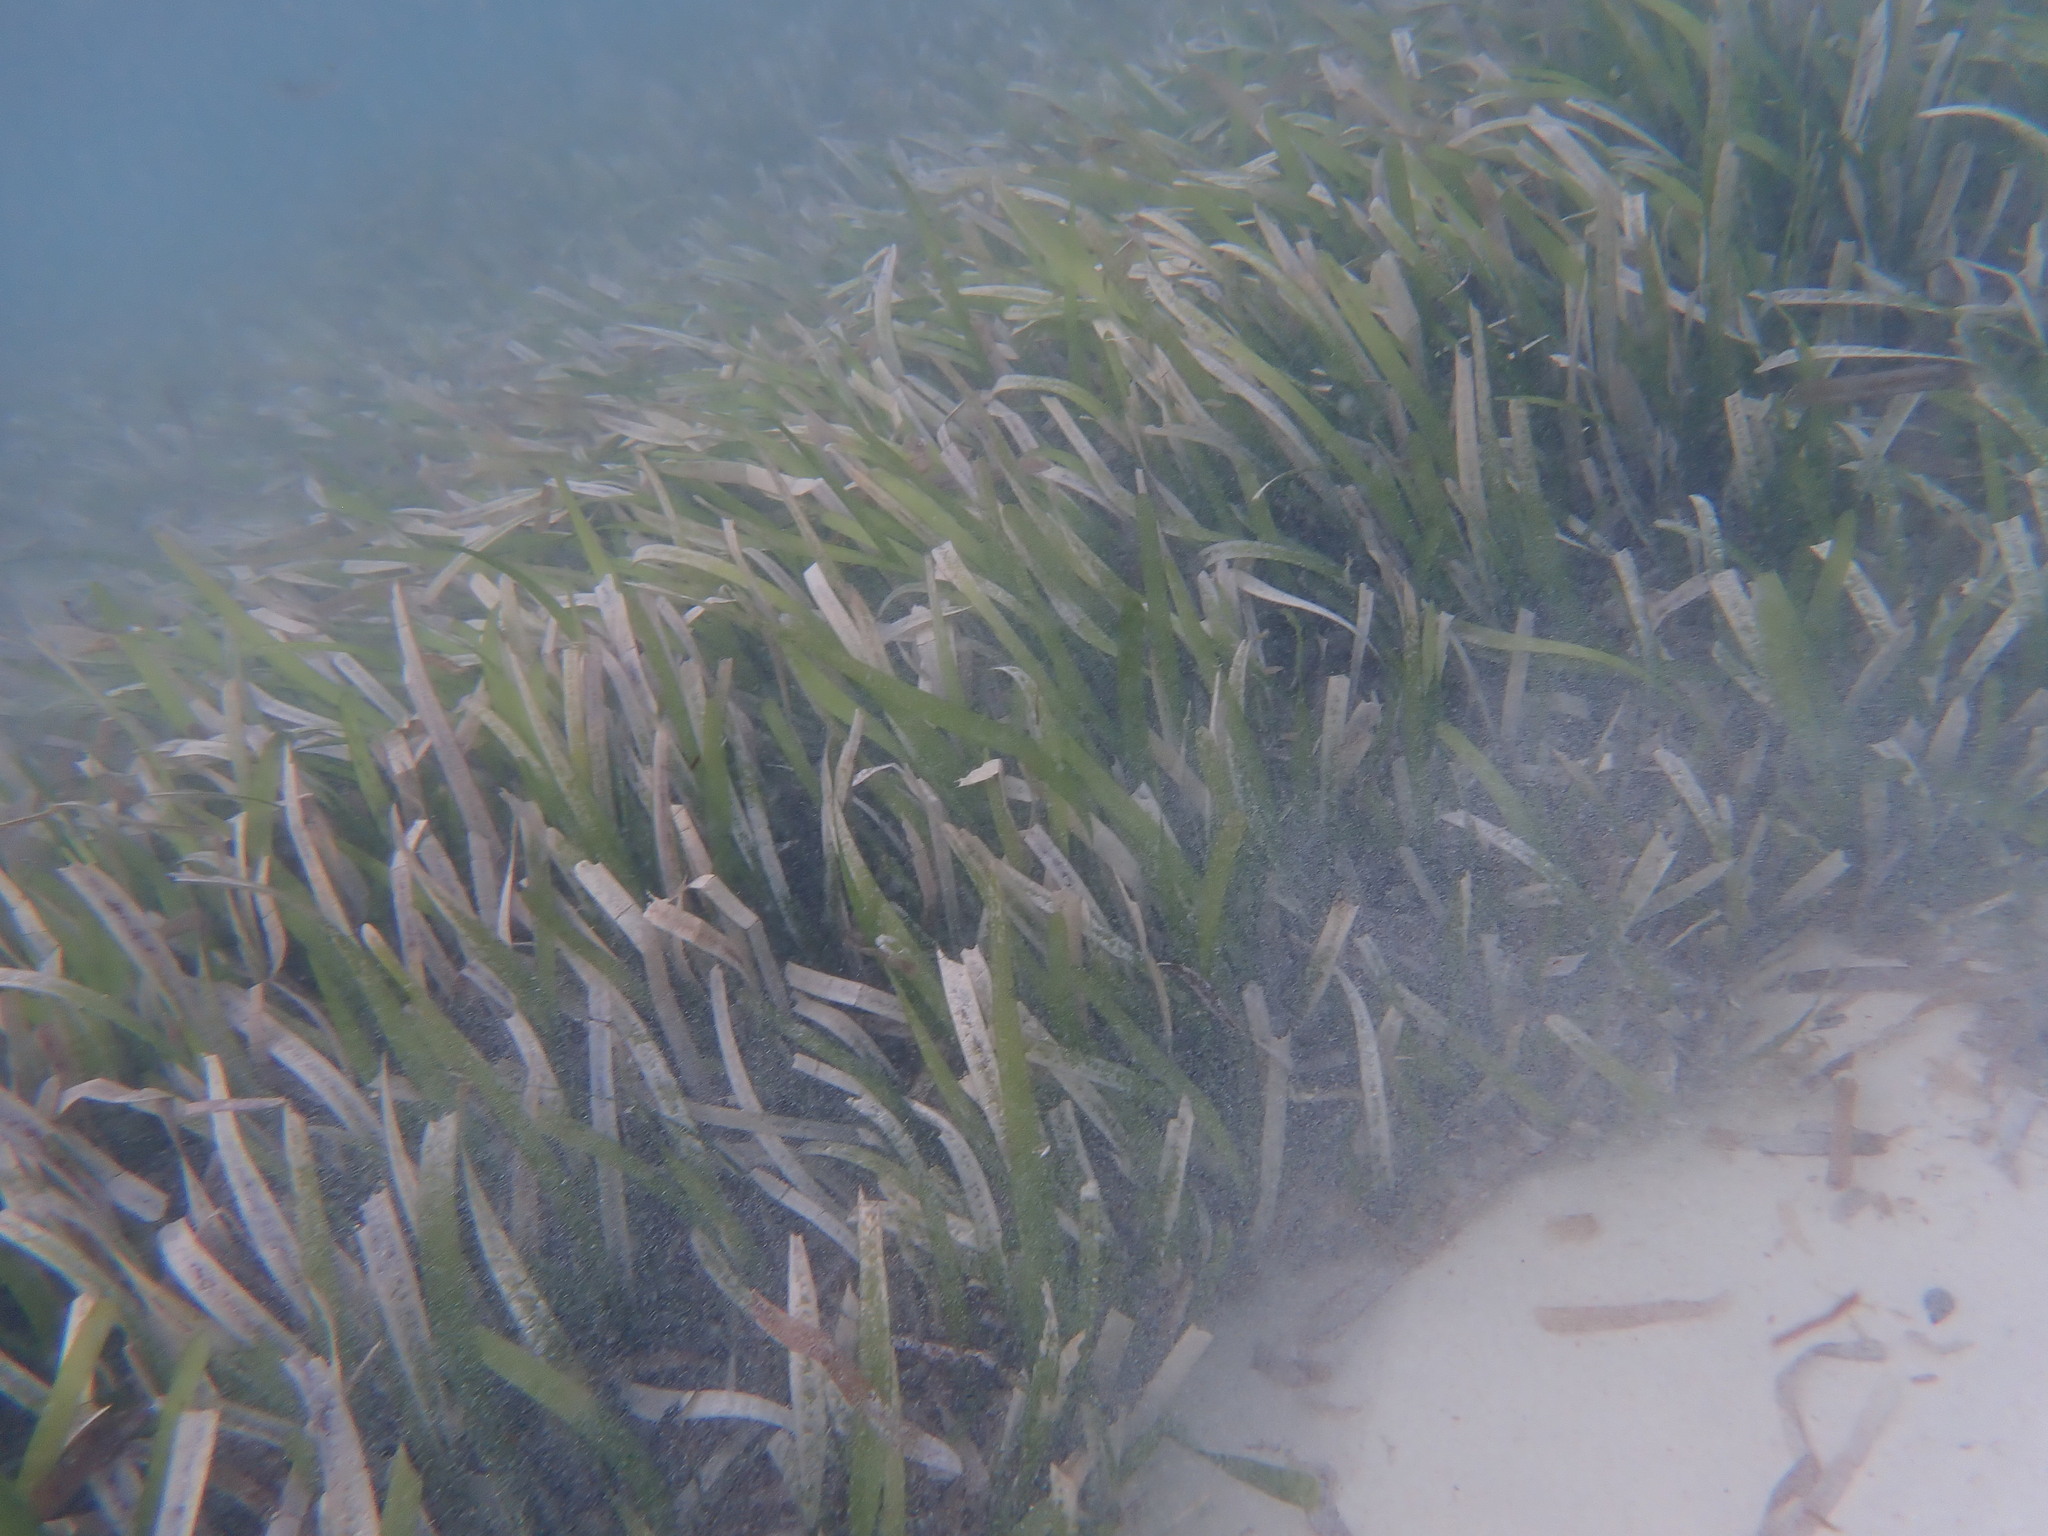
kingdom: Plantae
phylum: Tracheophyta
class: Liliopsida
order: Alismatales
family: Hydrocharitaceae
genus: Thalassia
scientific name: Thalassia testudinum
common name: Species code: tt
